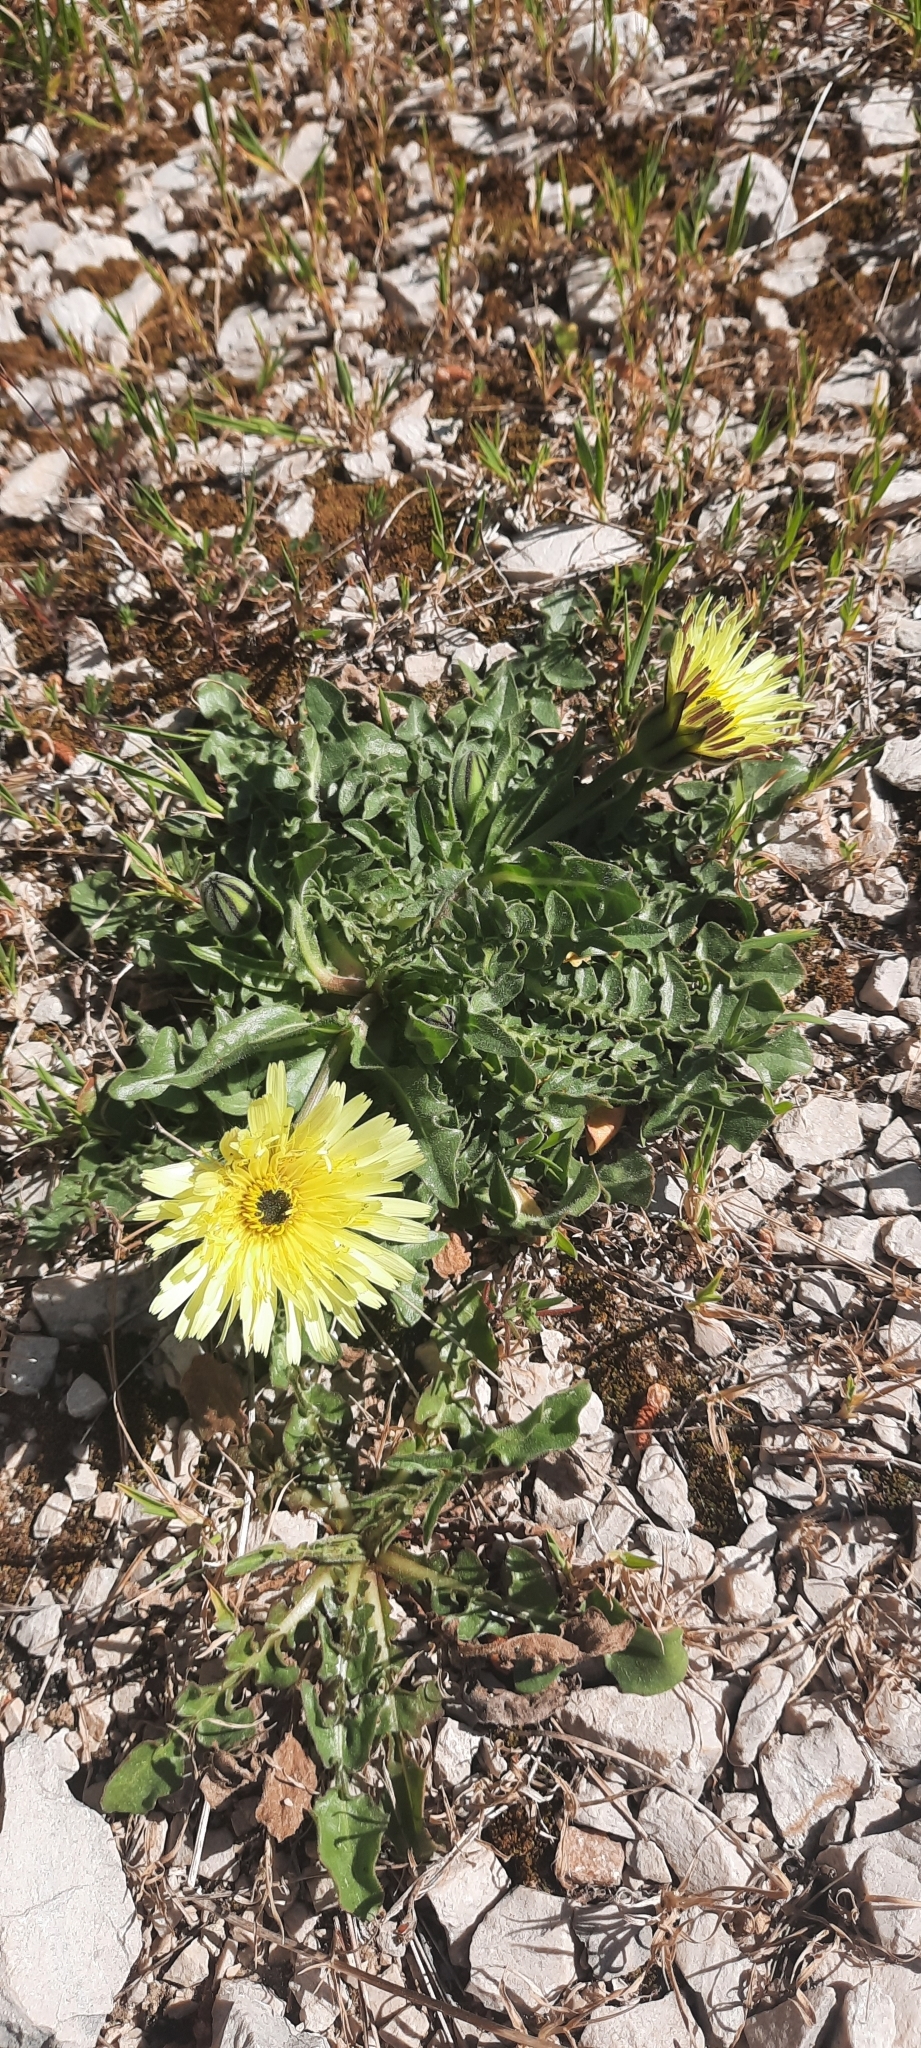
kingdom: Plantae
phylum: Tracheophyta
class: Magnoliopsida
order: Asterales
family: Asteraceae
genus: Urospermum
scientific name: Urospermum dalechampii
